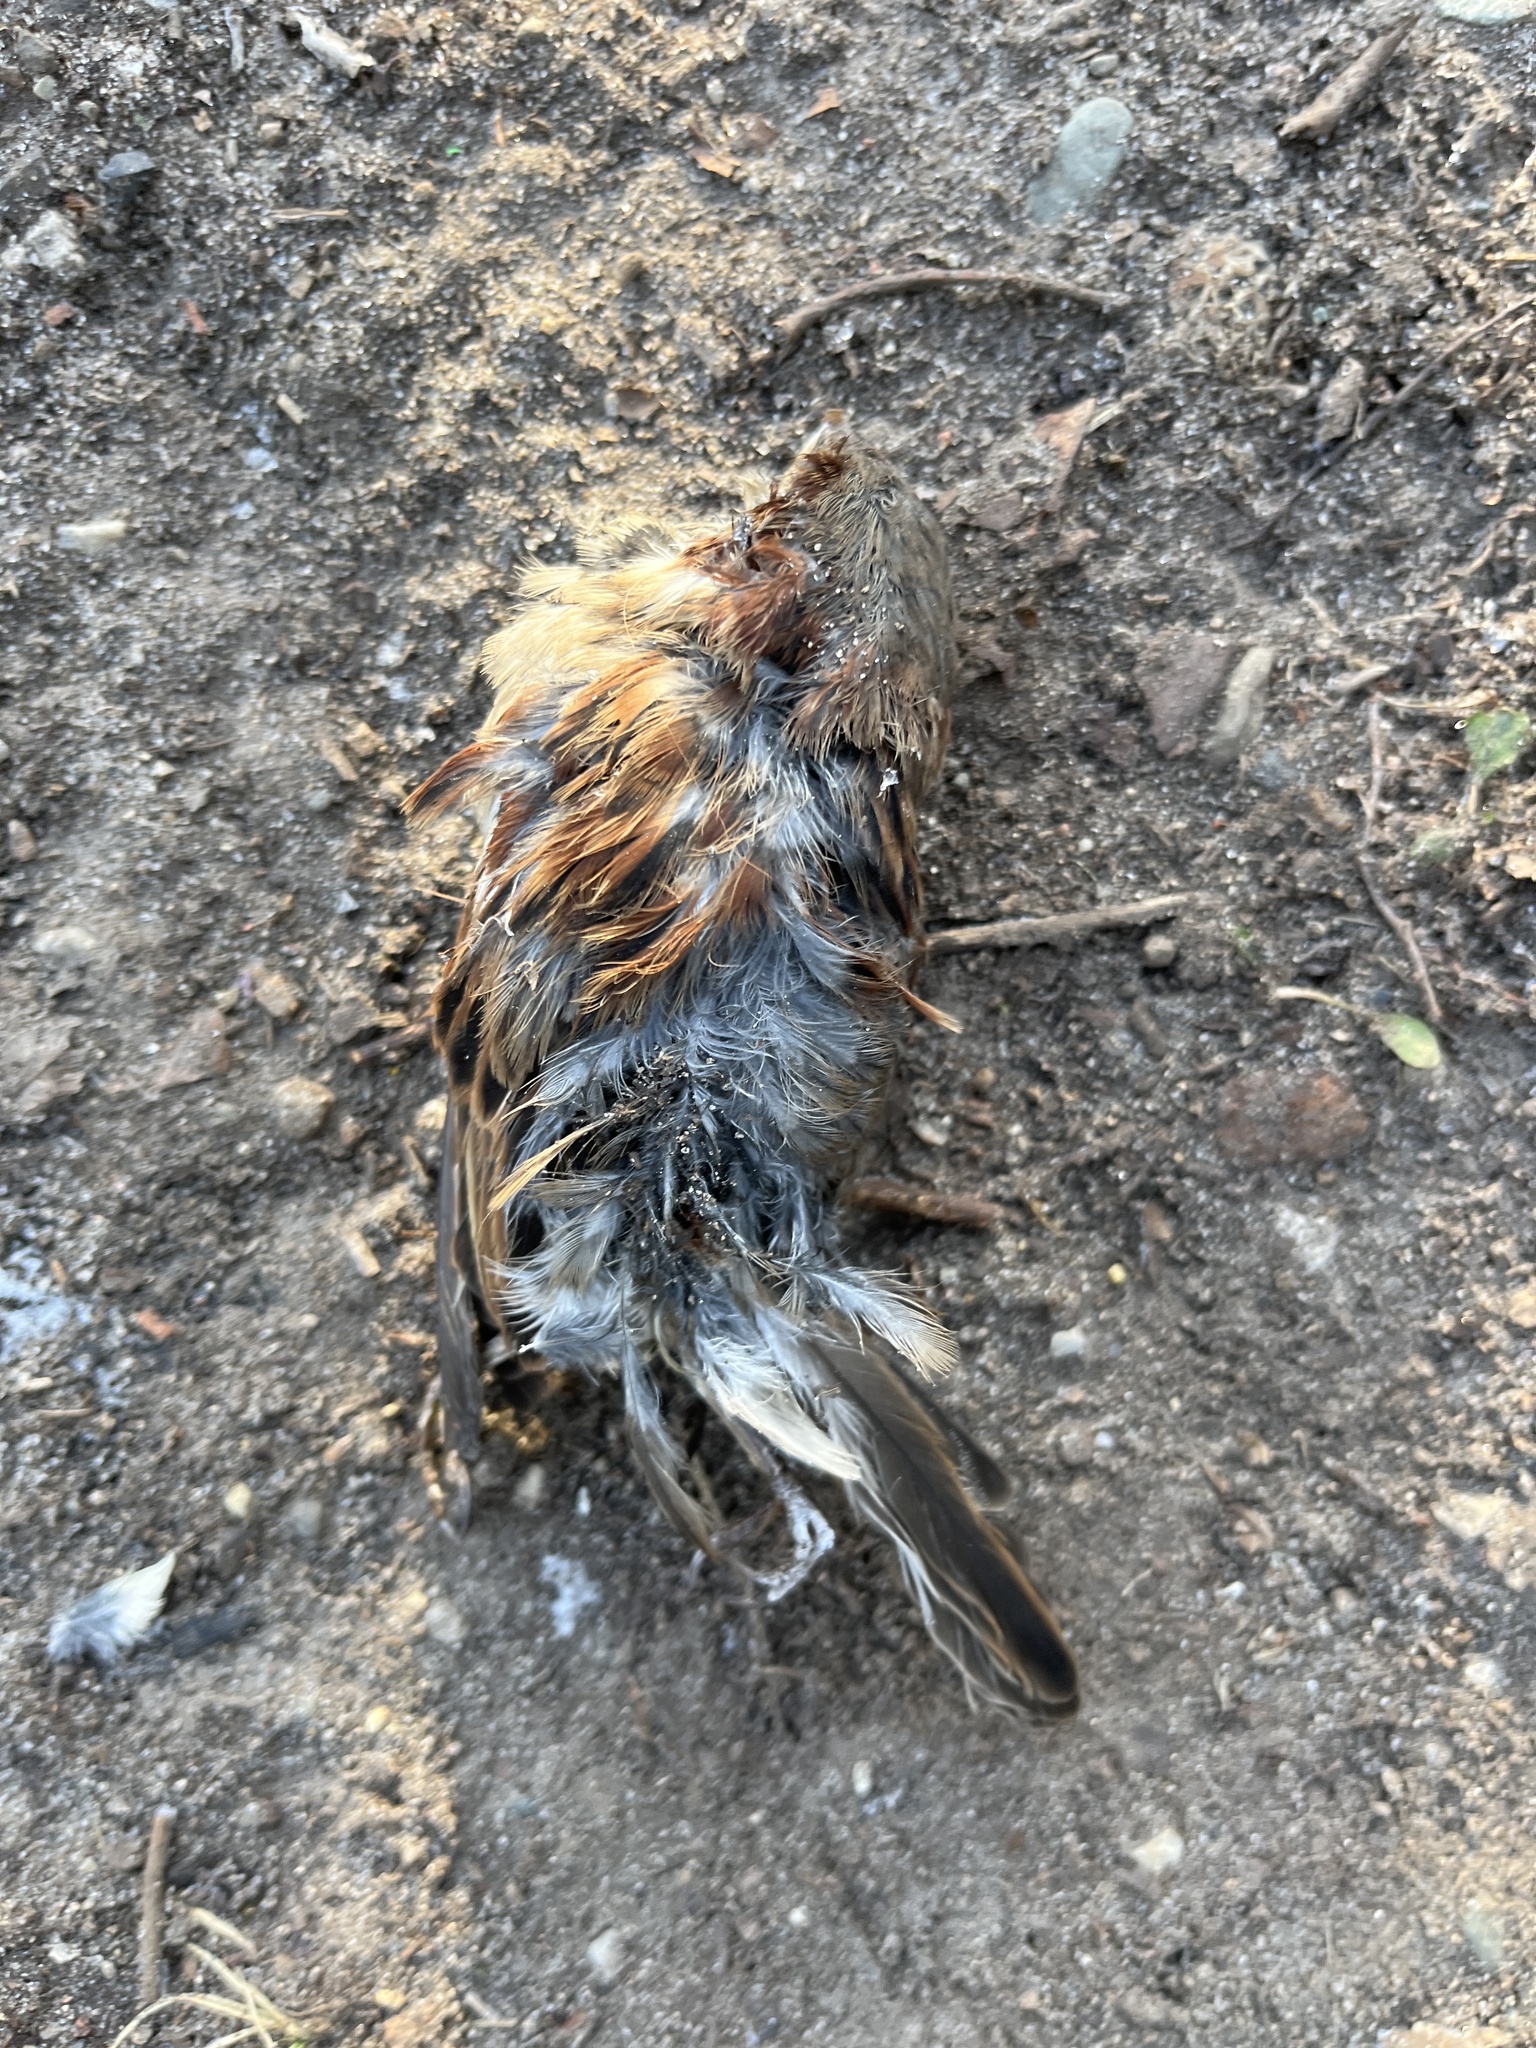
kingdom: Animalia
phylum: Chordata
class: Aves
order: Passeriformes
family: Passeridae
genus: Passer
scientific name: Passer domesticus
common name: House sparrow
